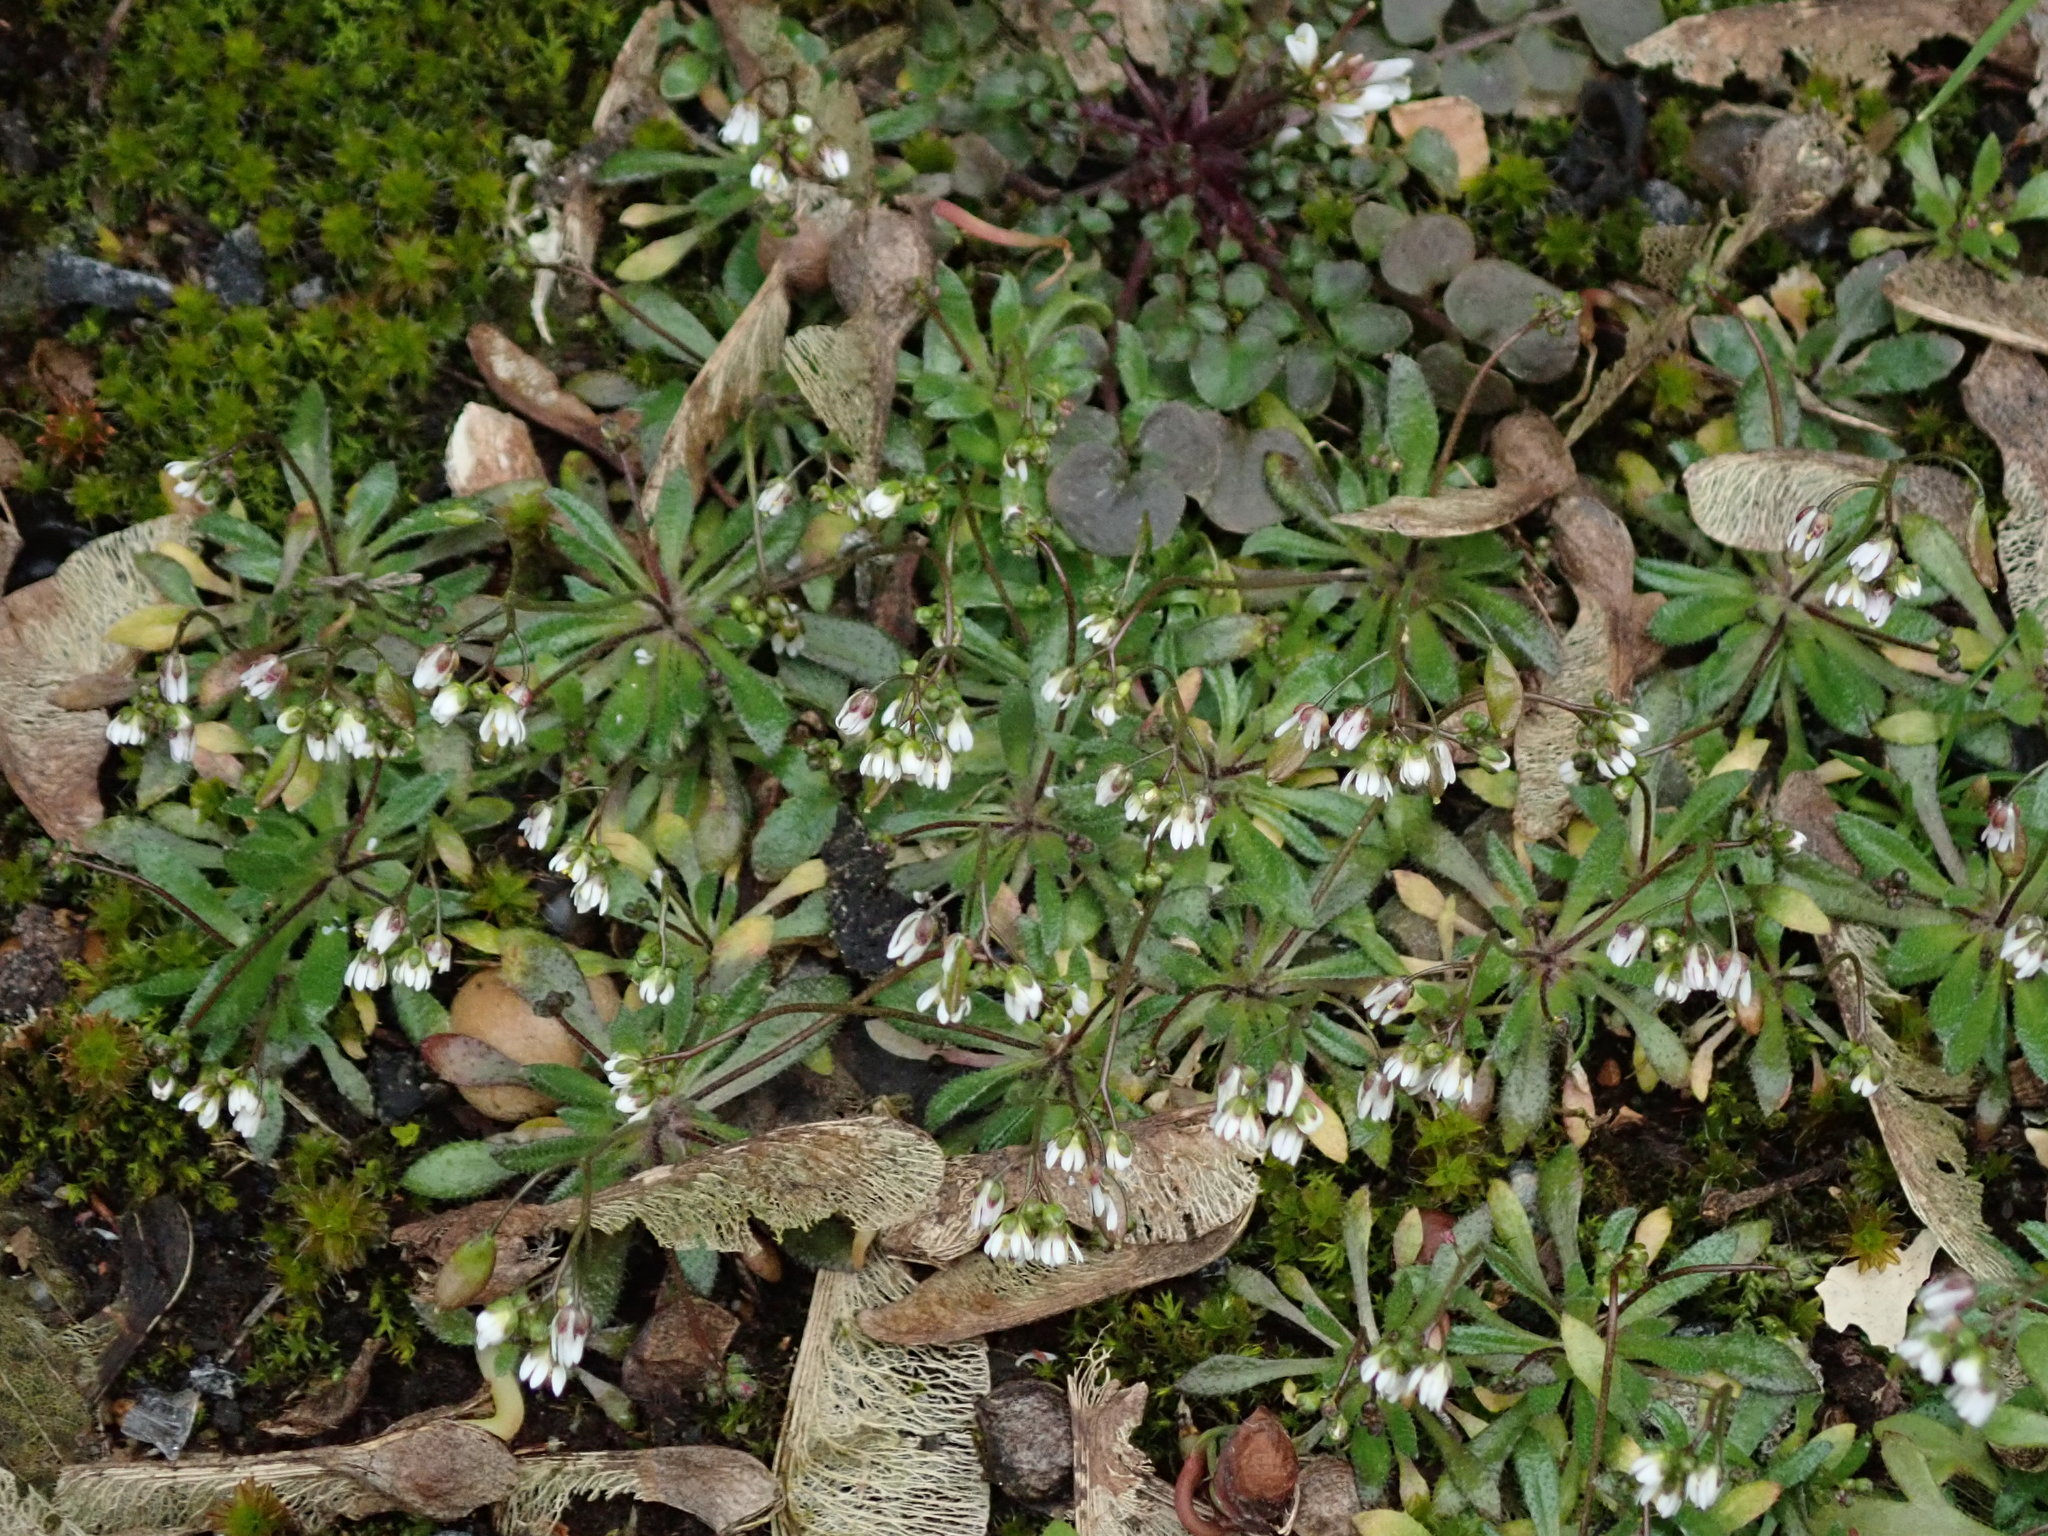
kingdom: Plantae
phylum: Tracheophyta
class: Magnoliopsida
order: Brassicales
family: Brassicaceae
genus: Draba
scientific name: Draba verna
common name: Spring draba
